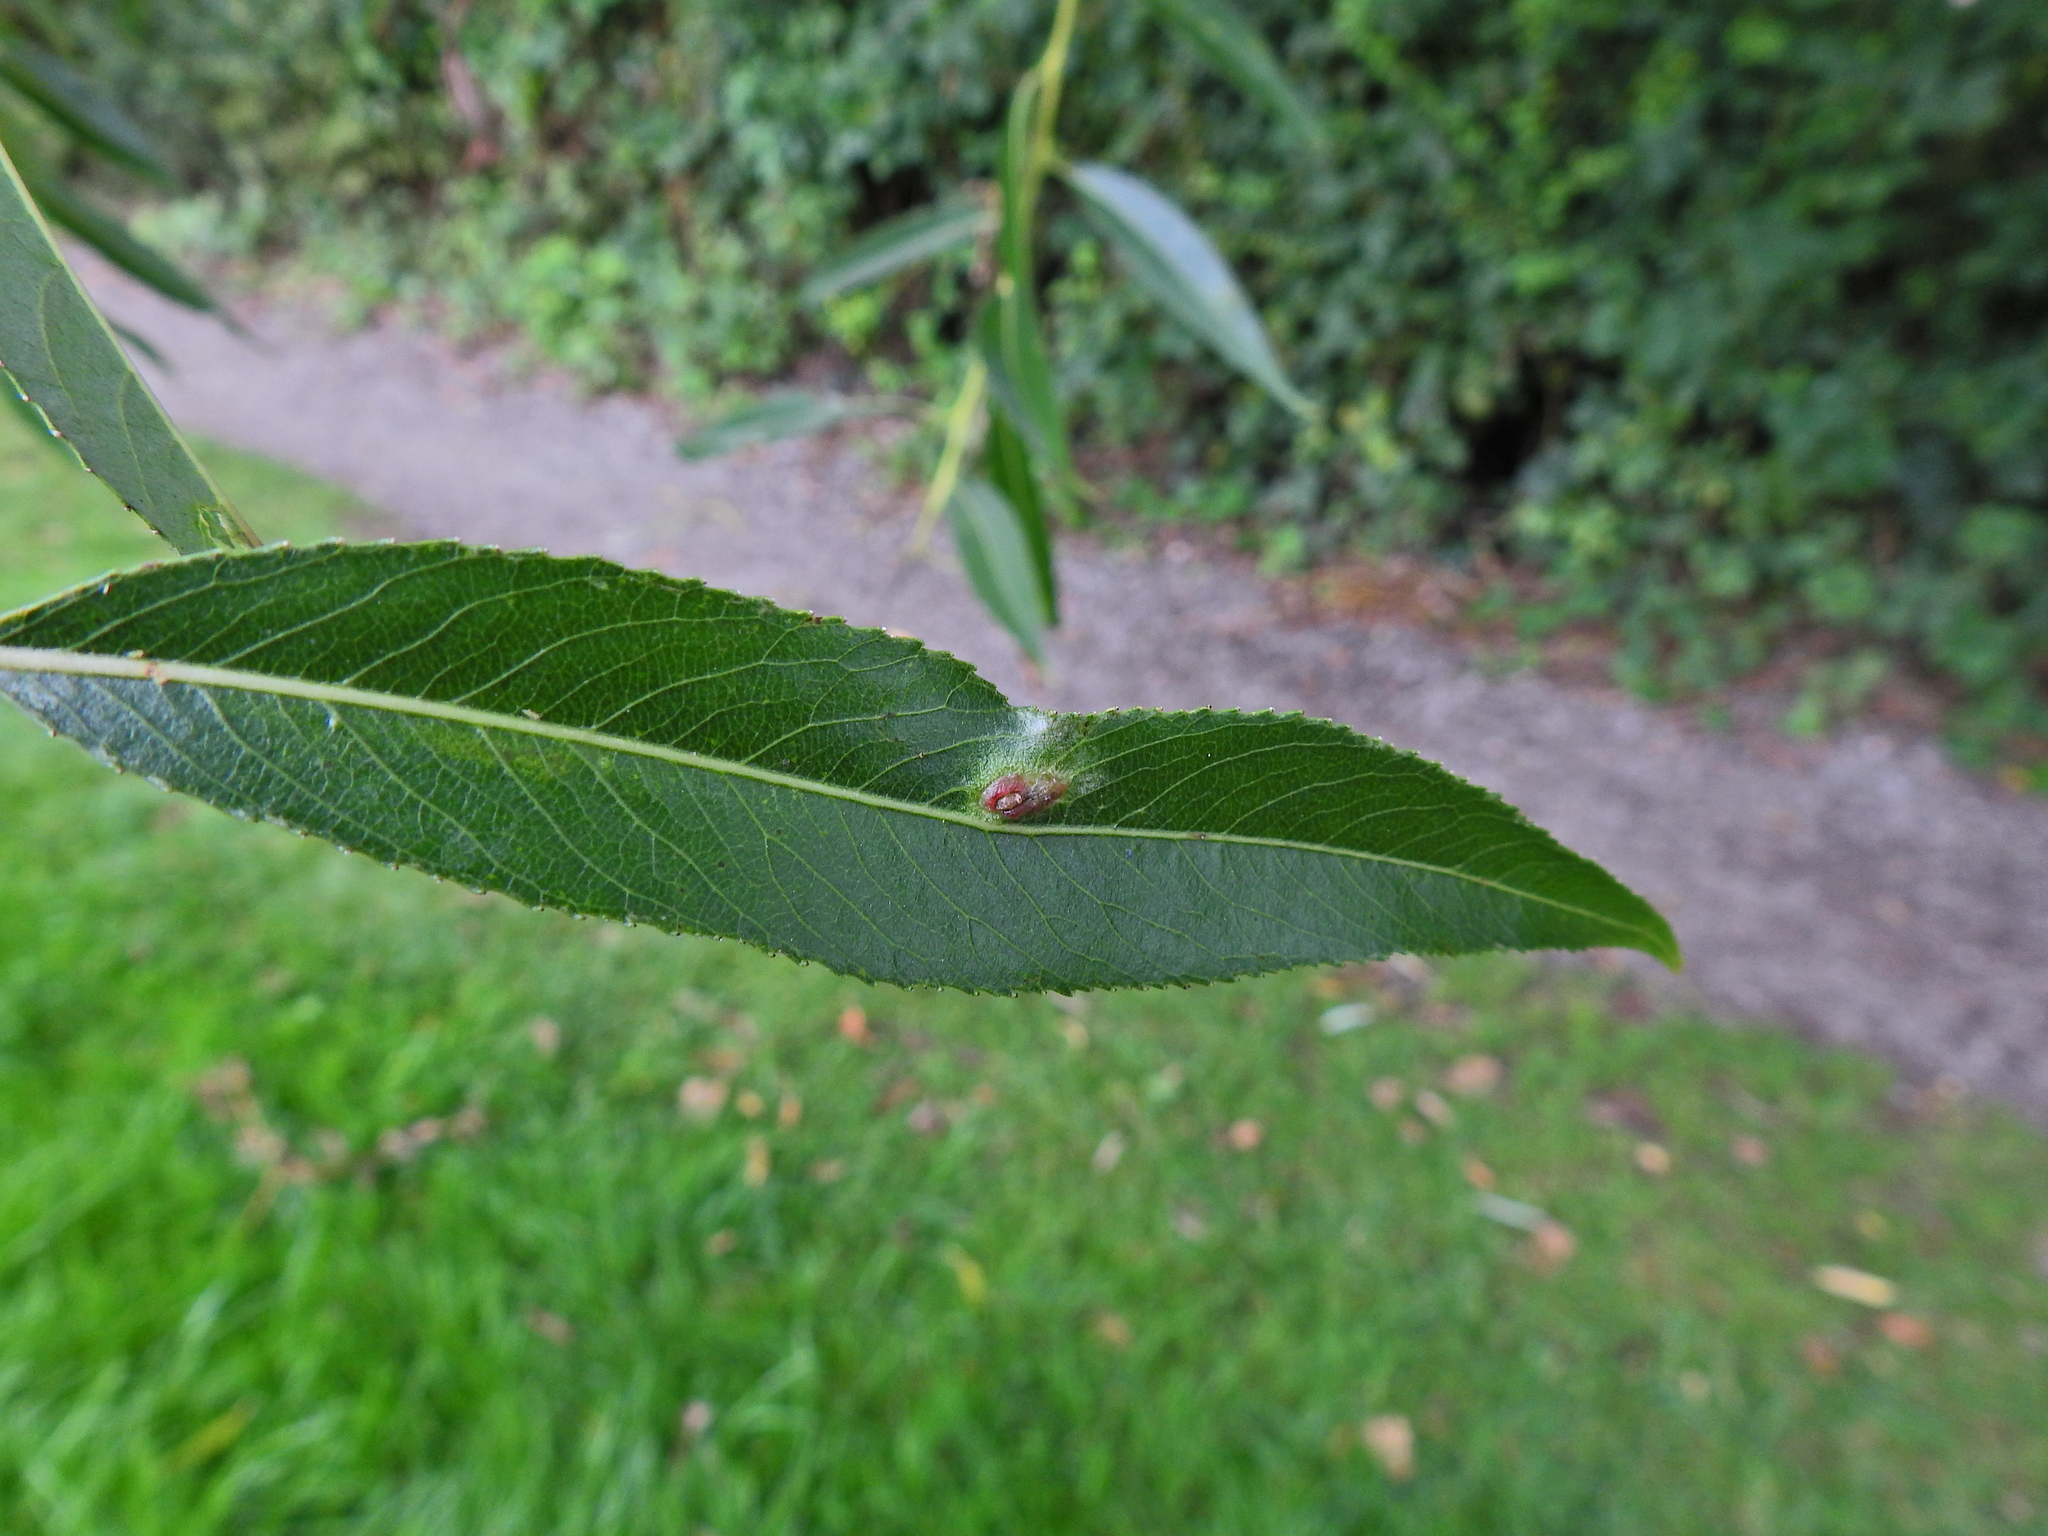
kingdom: Animalia
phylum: Arthropoda
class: Insecta
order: Hymenoptera
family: Tenthredinidae
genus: Pontania
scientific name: Pontania proxima
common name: Common sawfly
